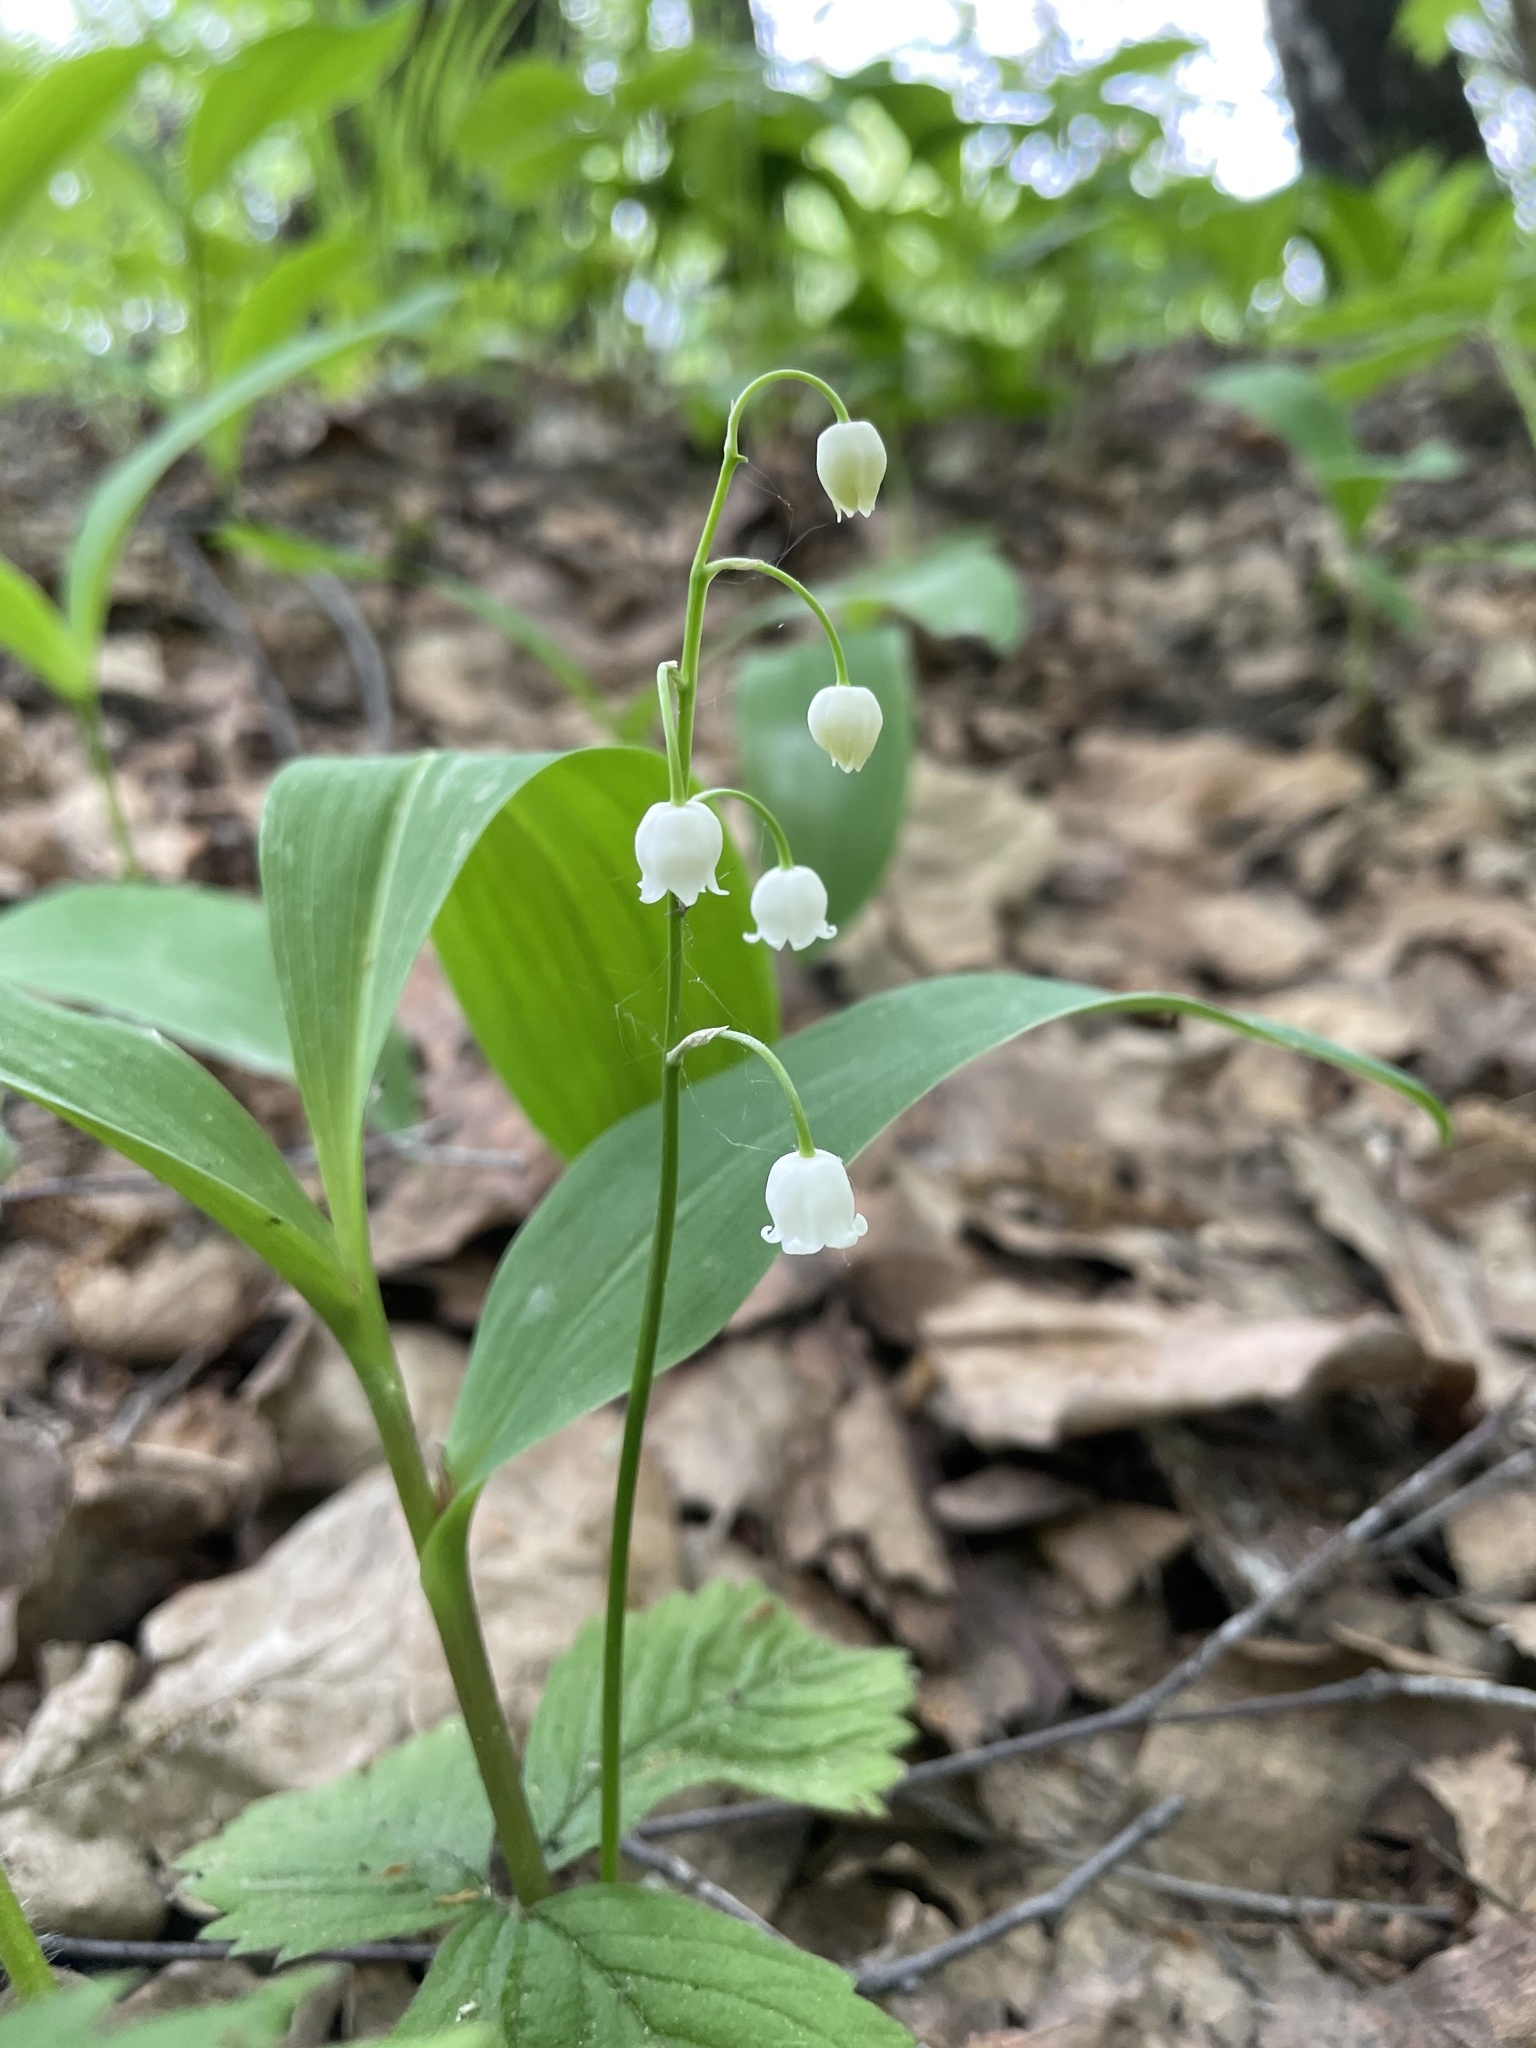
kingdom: Plantae
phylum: Tracheophyta
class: Liliopsida
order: Asparagales
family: Asparagaceae
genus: Convallaria
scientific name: Convallaria majalis
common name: Lily-of-the-valley
